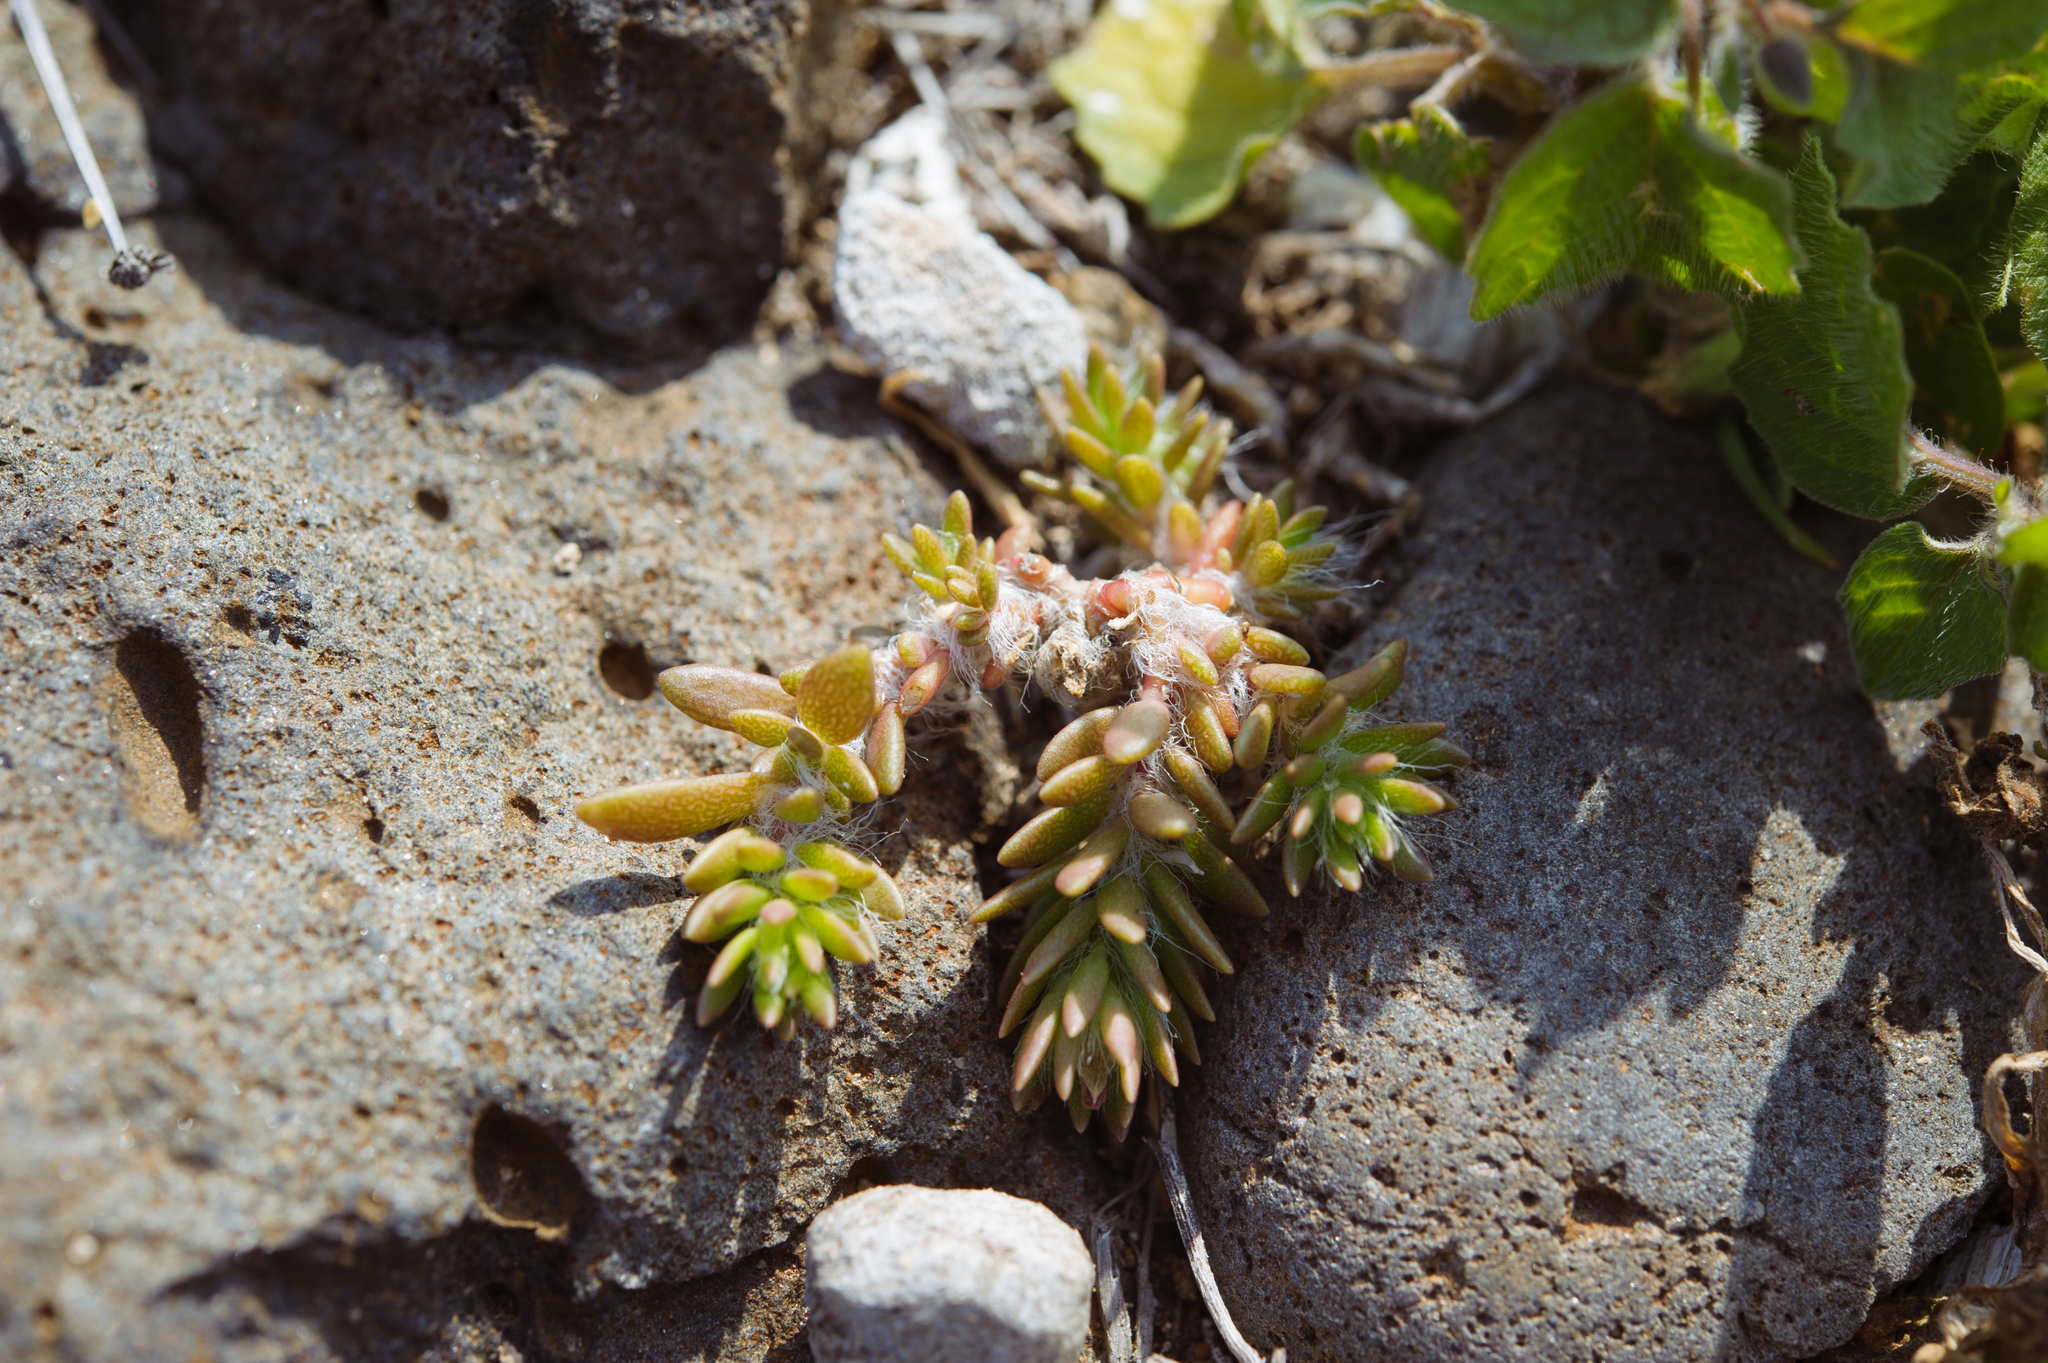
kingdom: Plantae
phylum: Tracheophyta
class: Magnoliopsida
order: Caryophyllales
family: Portulacaceae
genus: Portulaca
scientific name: Portulaca pilosa
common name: Kiss me quick
